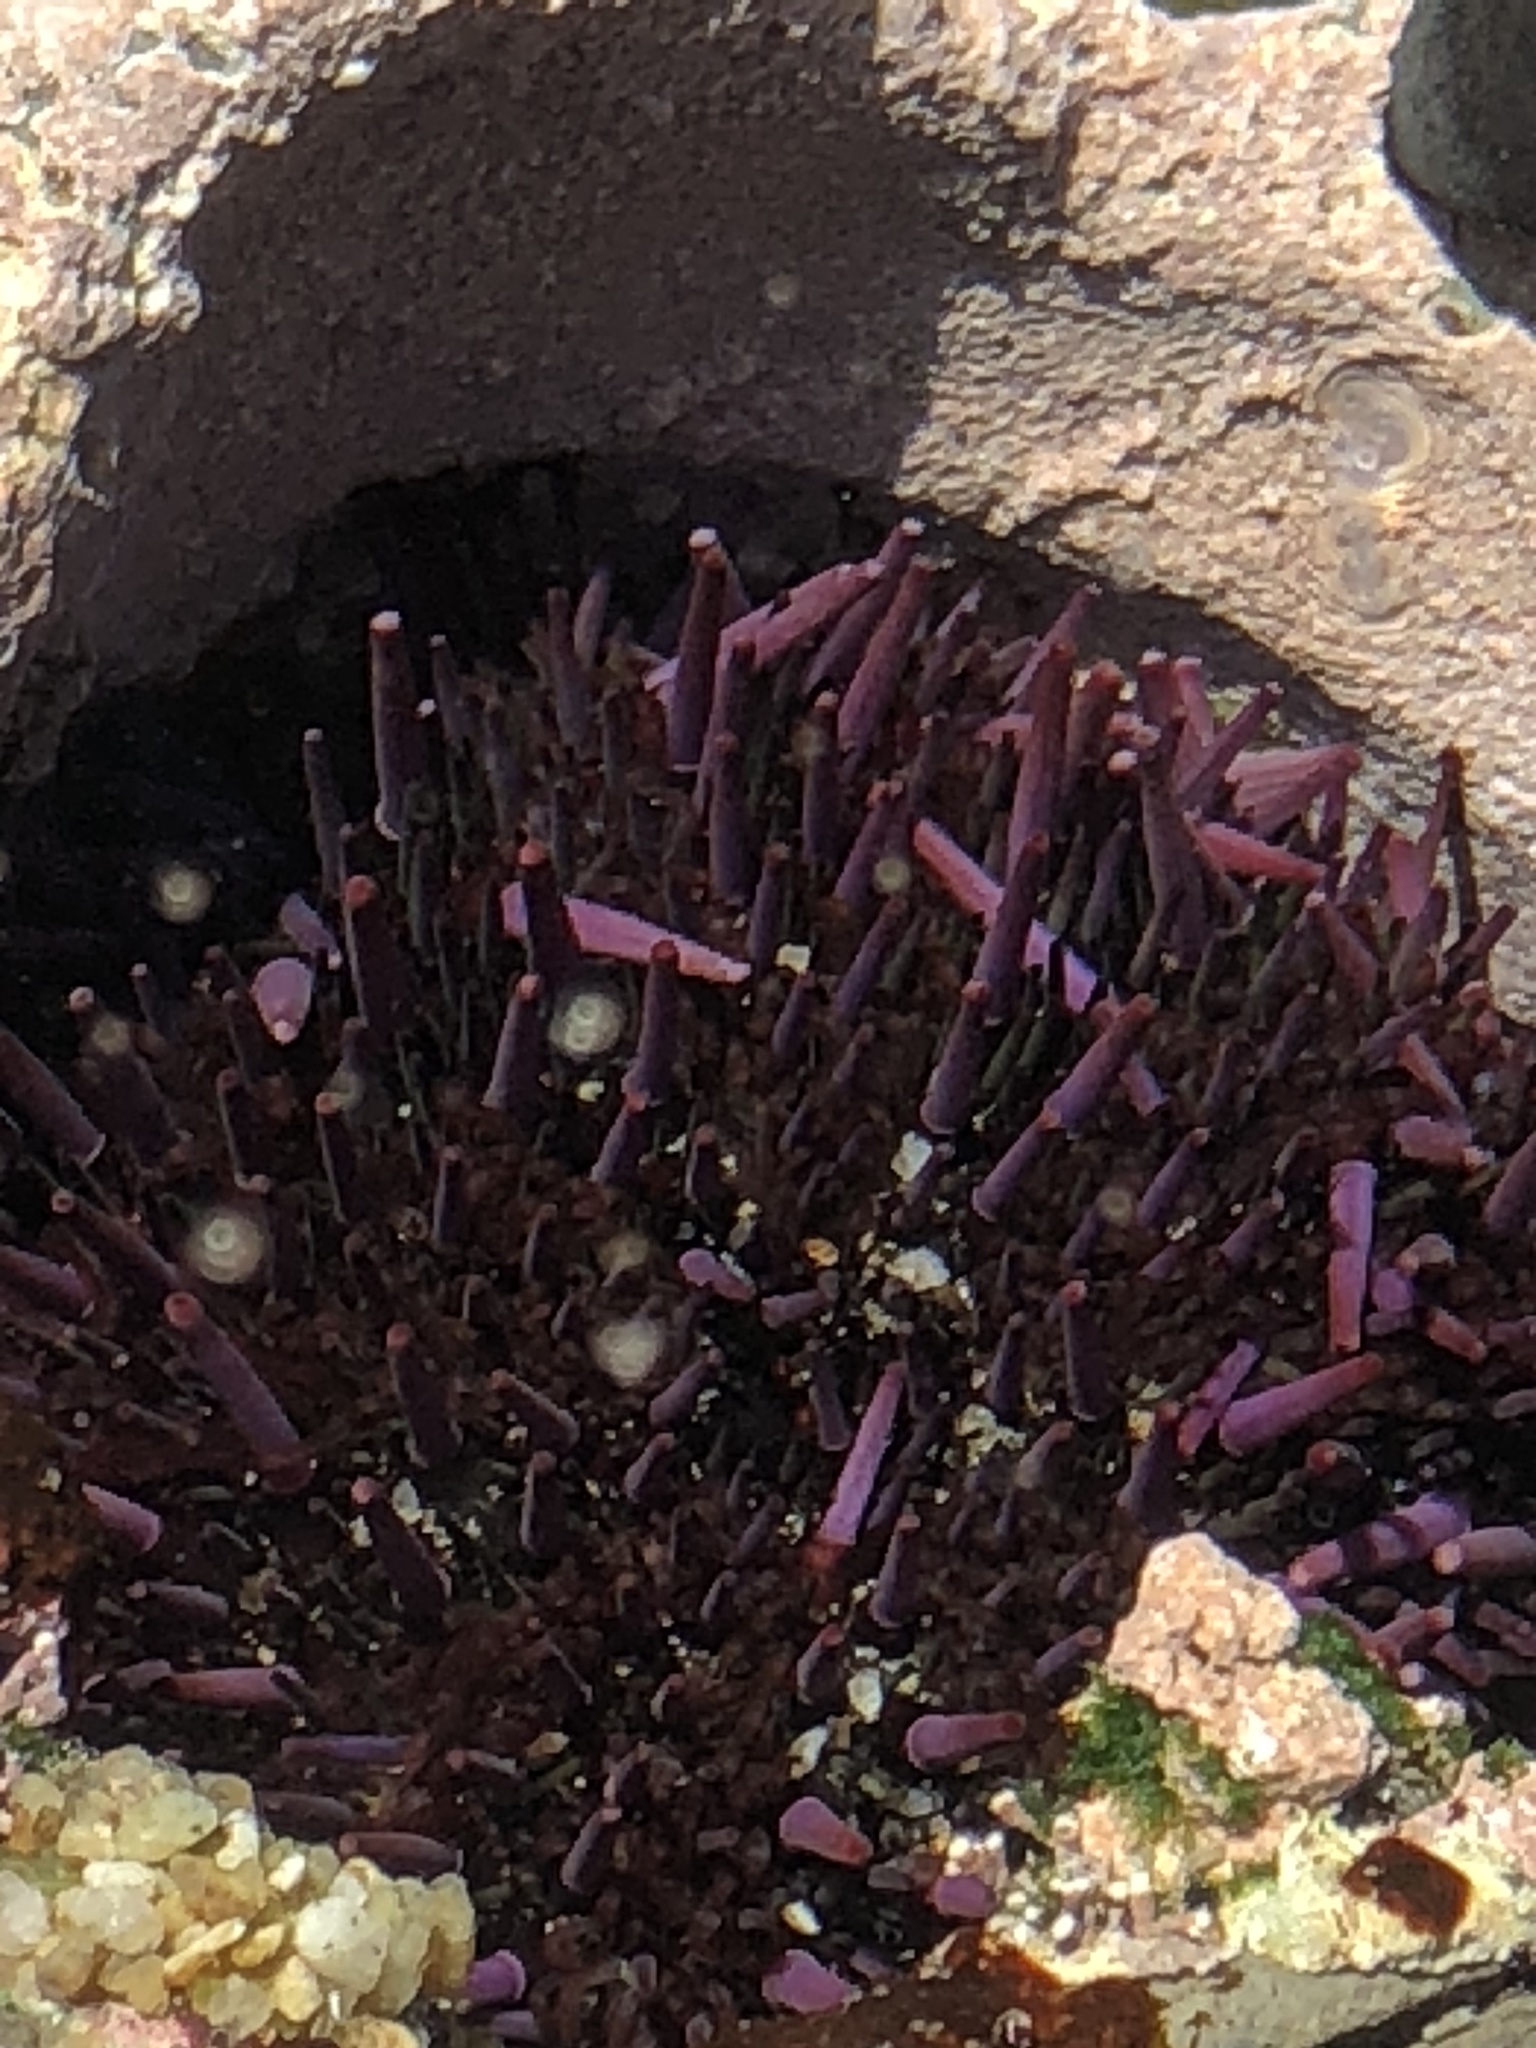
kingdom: Animalia
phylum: Echinodermata
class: Echinoidea
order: Camarodonta
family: Strongylocentrotidae
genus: Strongylocentrotus
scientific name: Strongylocentrotus purpuratus
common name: Purple sea urchin
